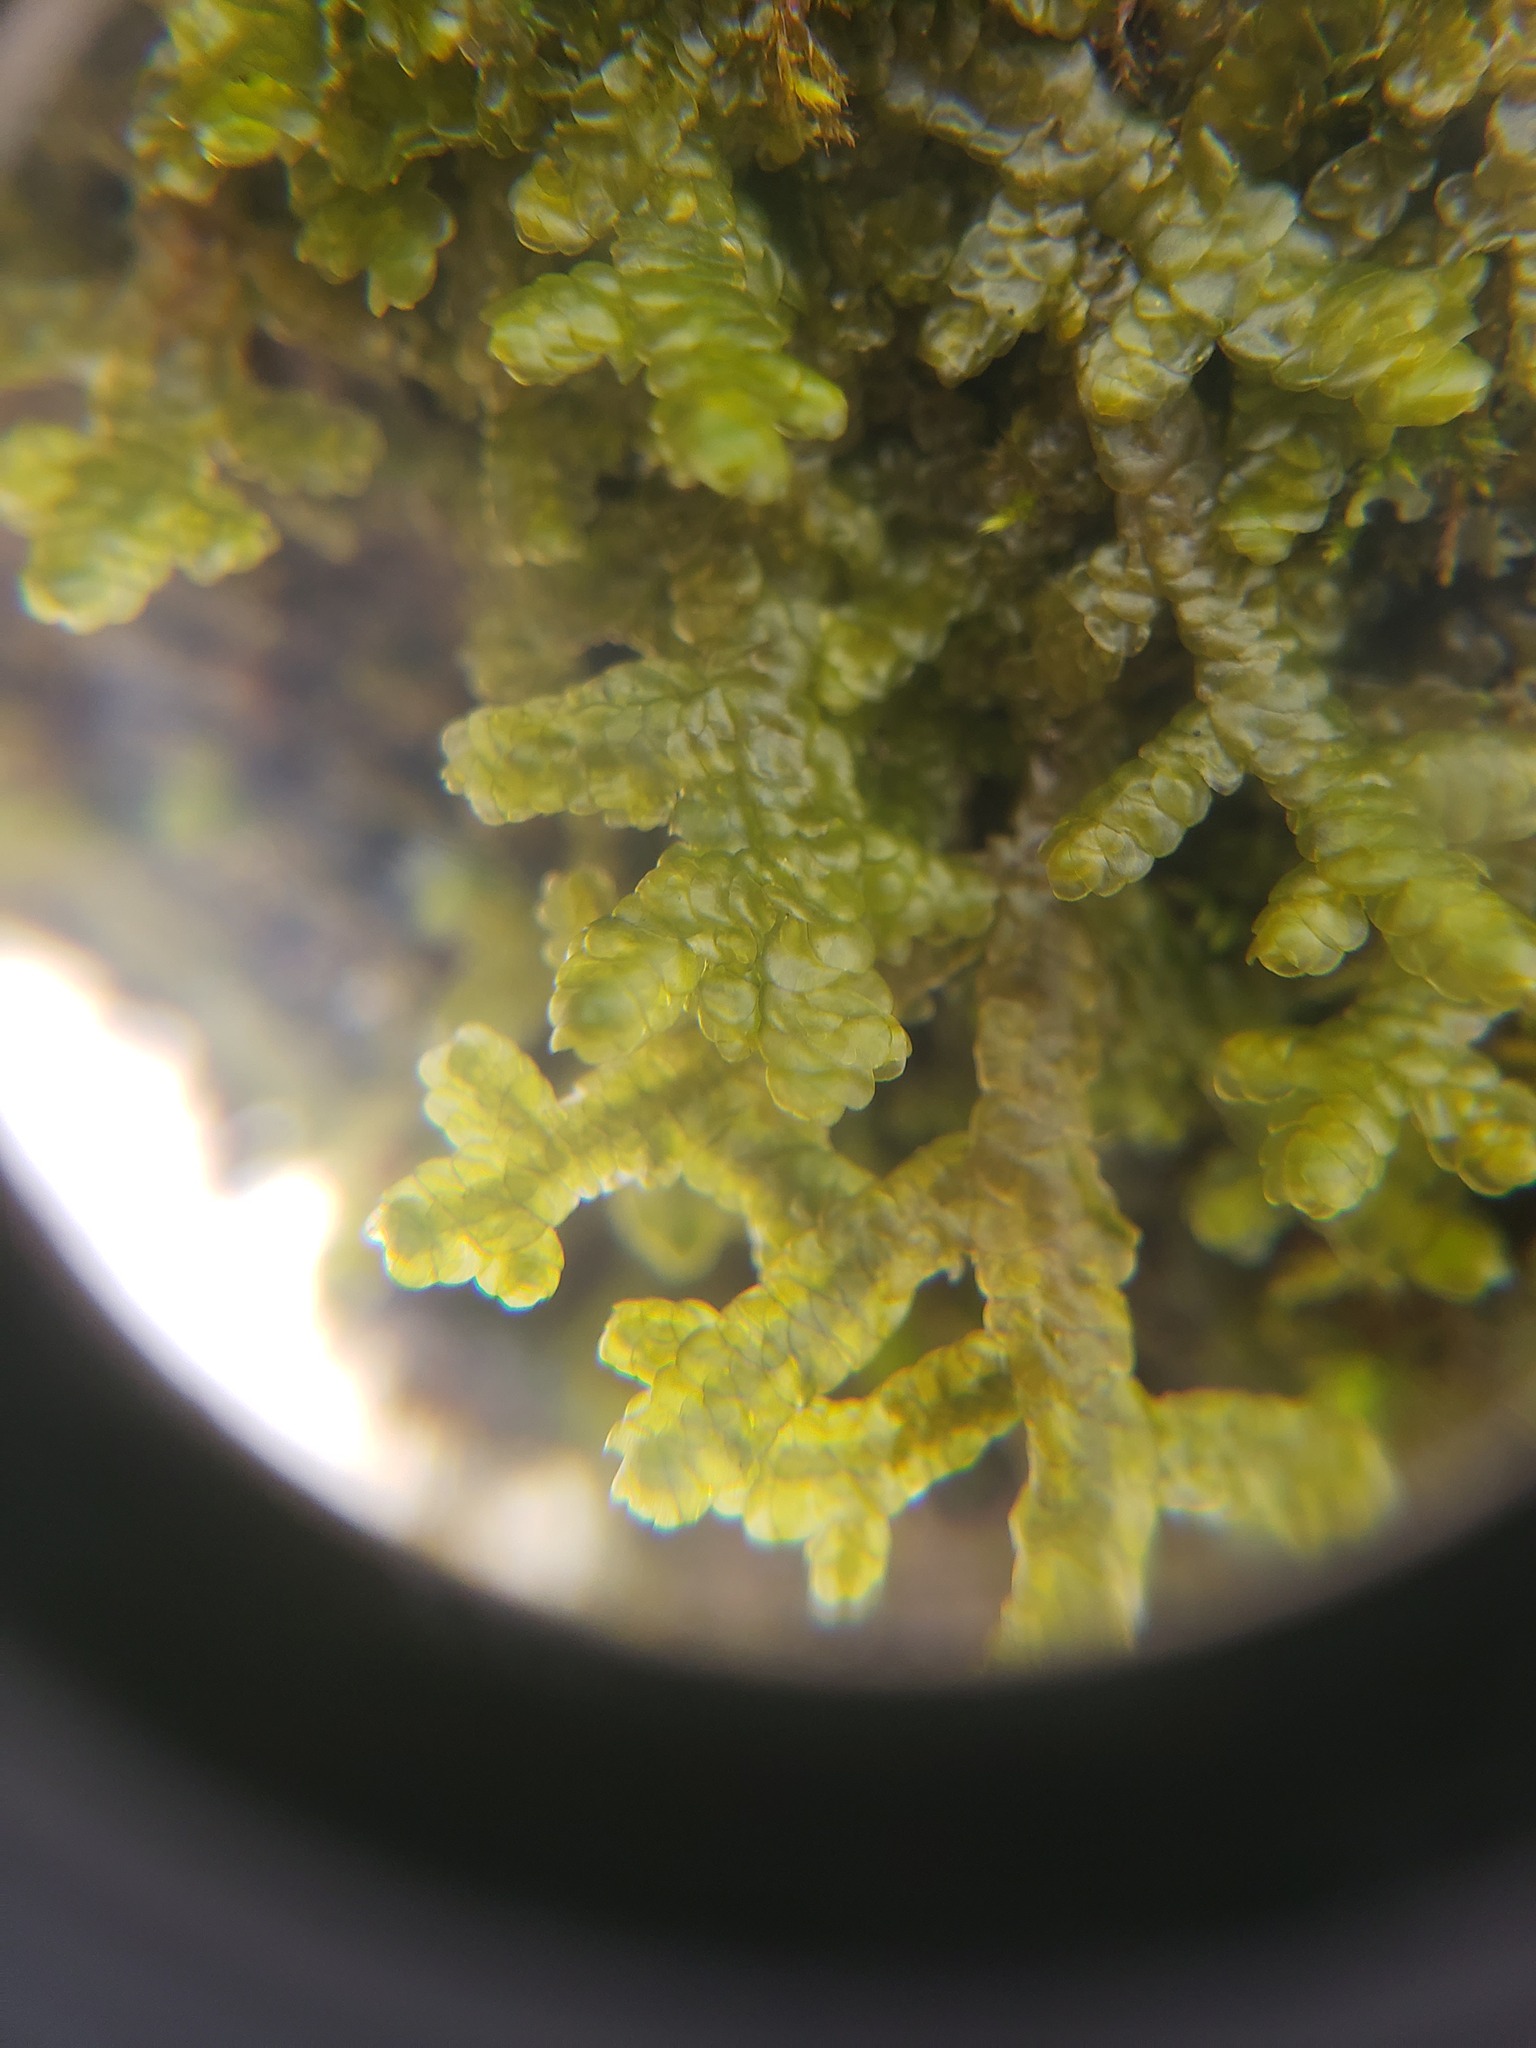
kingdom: Plantae
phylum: Marchantiophyta
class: Jungermanniopsida
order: Porellales
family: Porellaceae
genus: Porella
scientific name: Porella platyphylla
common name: Wall scalewort
